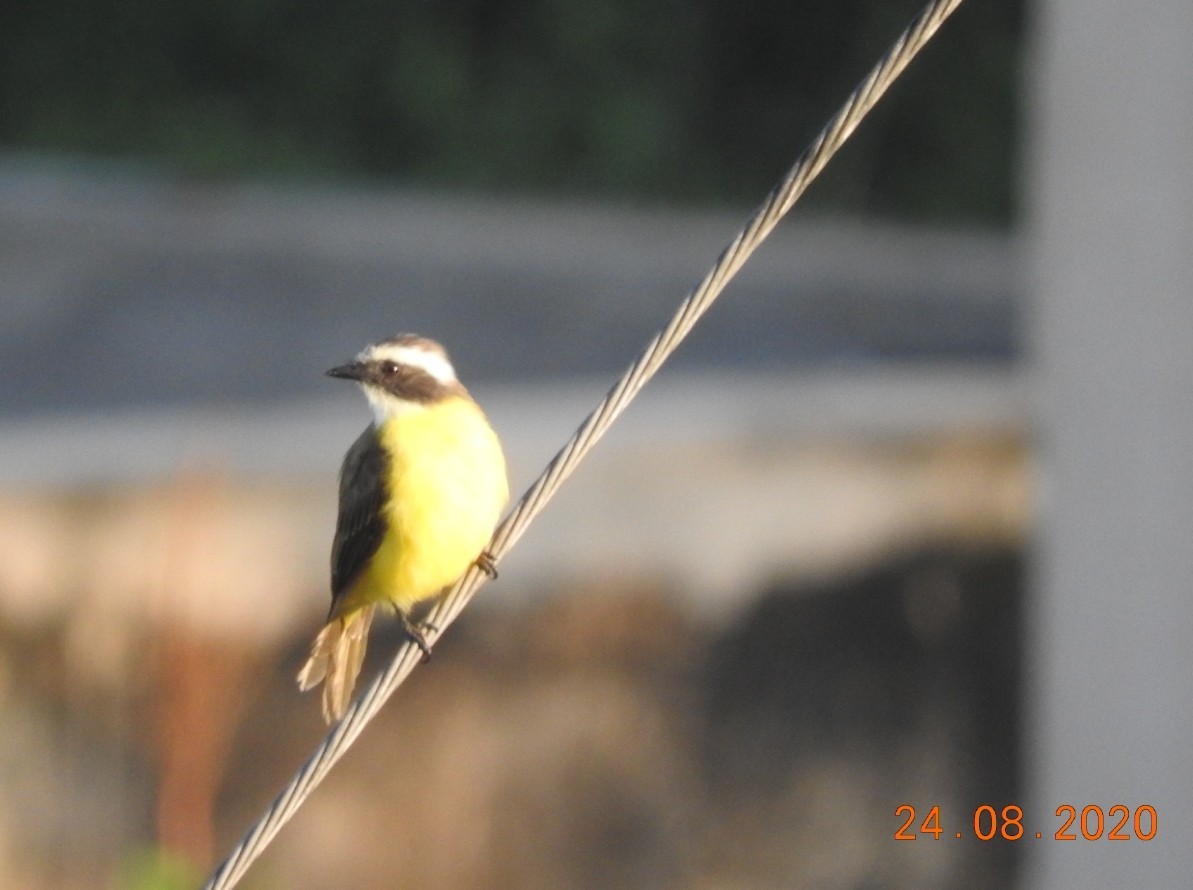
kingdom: Animalia
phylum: Chordata
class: Aves
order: Passeriformes
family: Tyrannidae
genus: Myiozetetes
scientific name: Myiozetetes similis
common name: Social flycatcher
